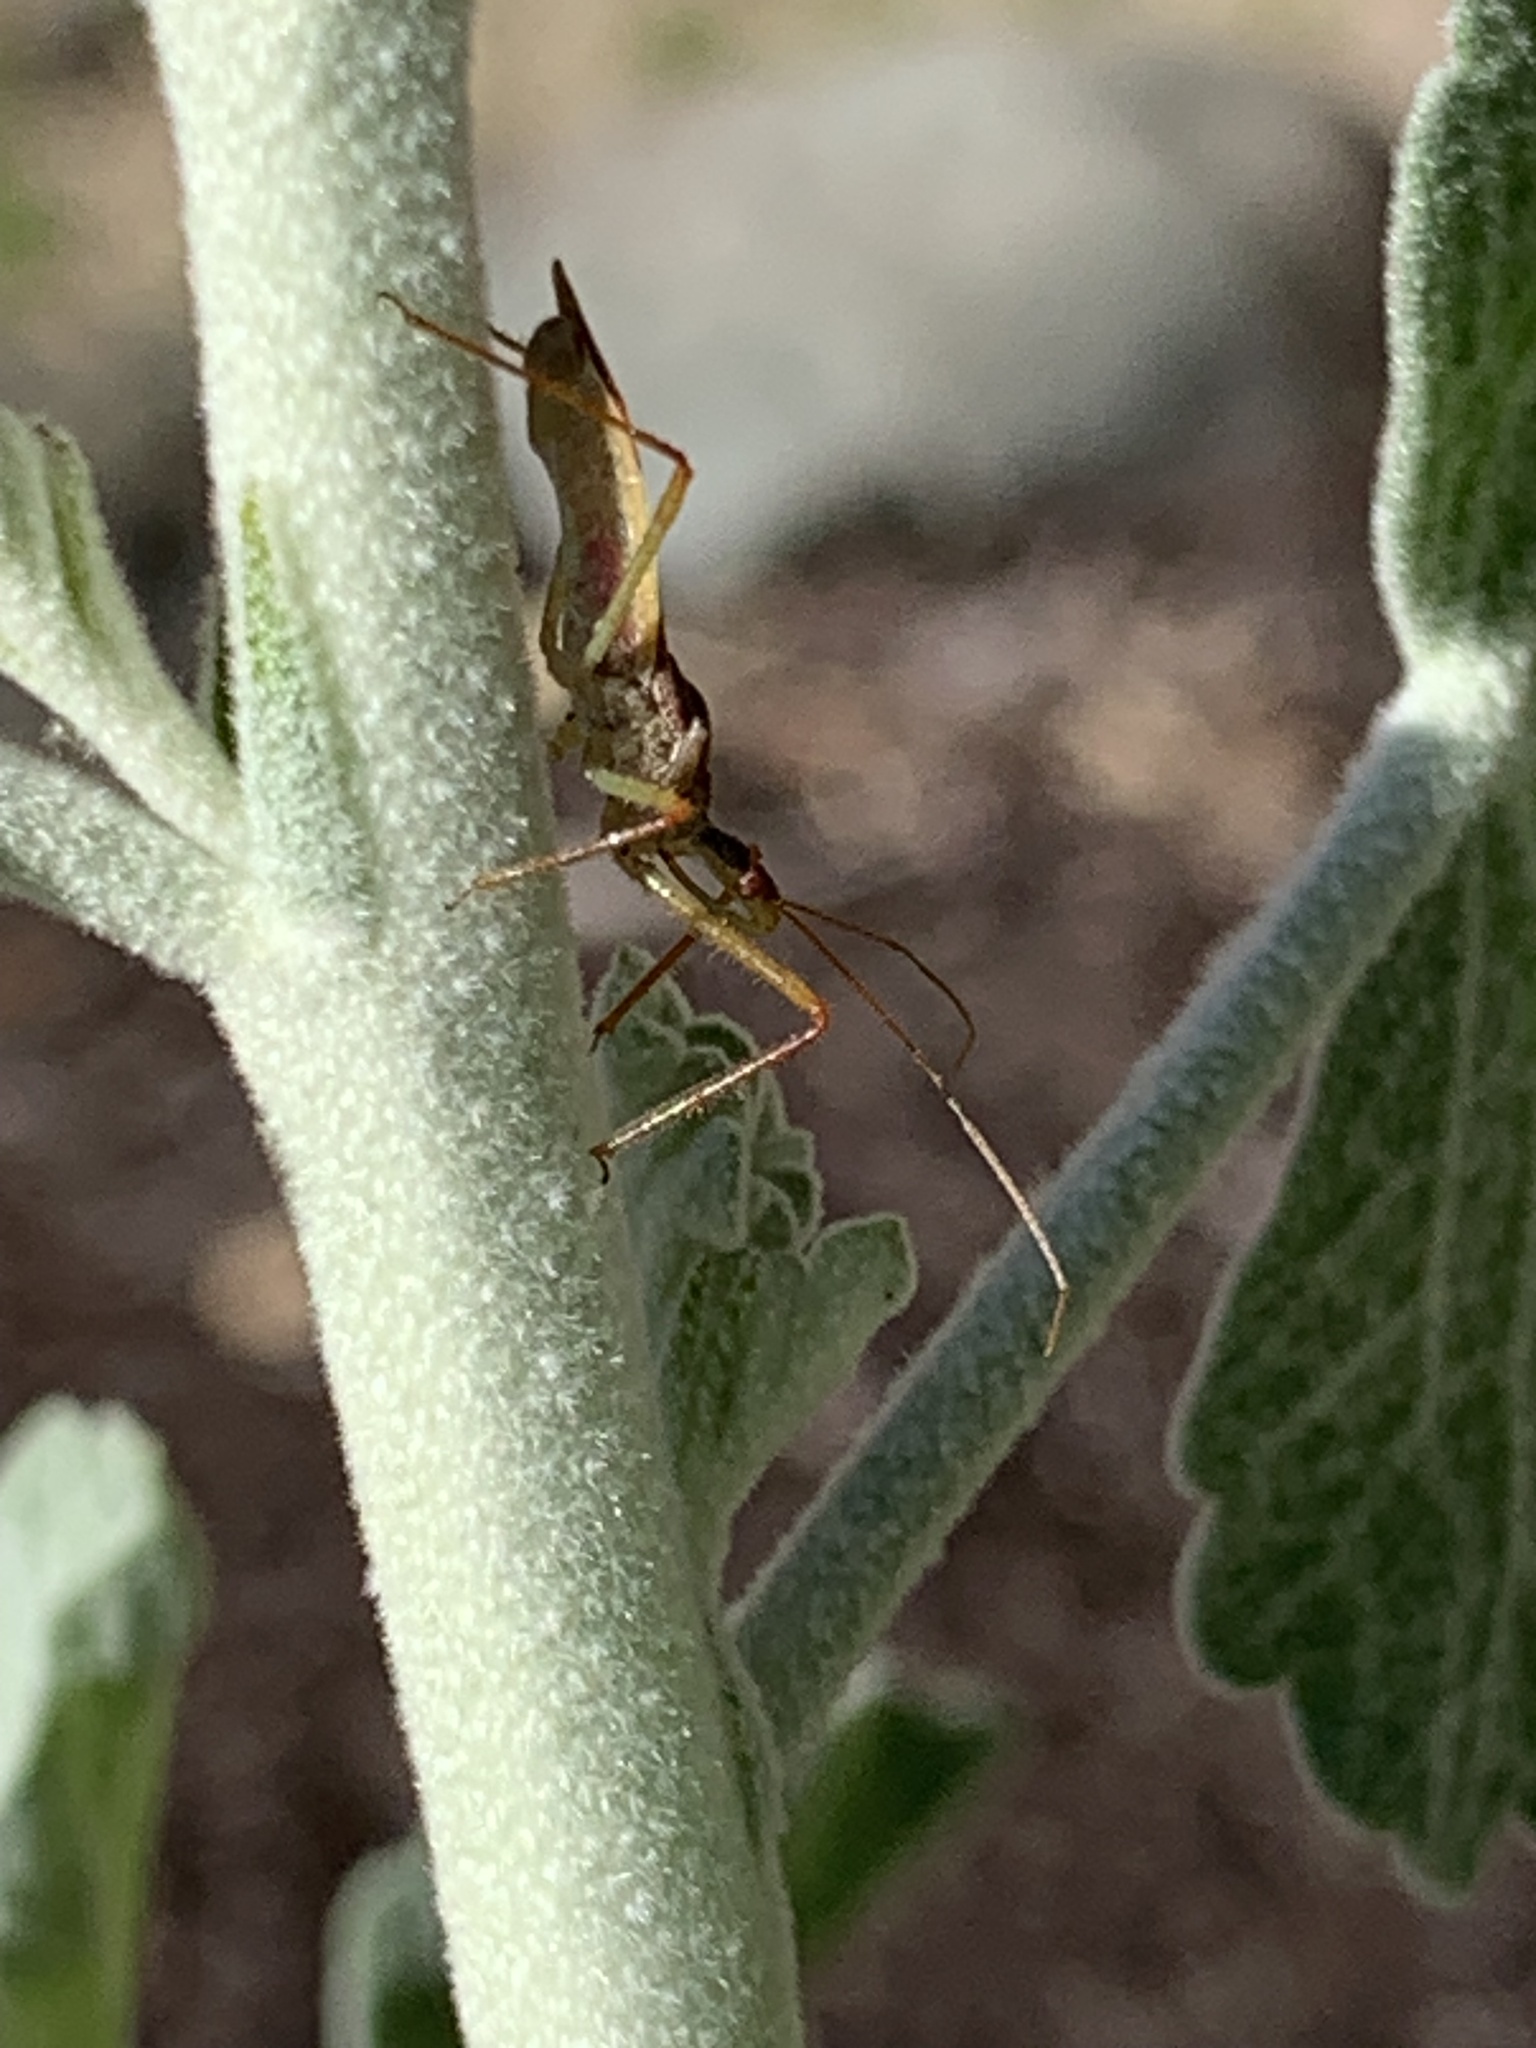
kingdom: Animalia
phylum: Arthropoda
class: Insecta
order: Hemiptera
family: Reduviidae
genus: Zelus
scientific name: Zelus renardii
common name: Assassin bug
